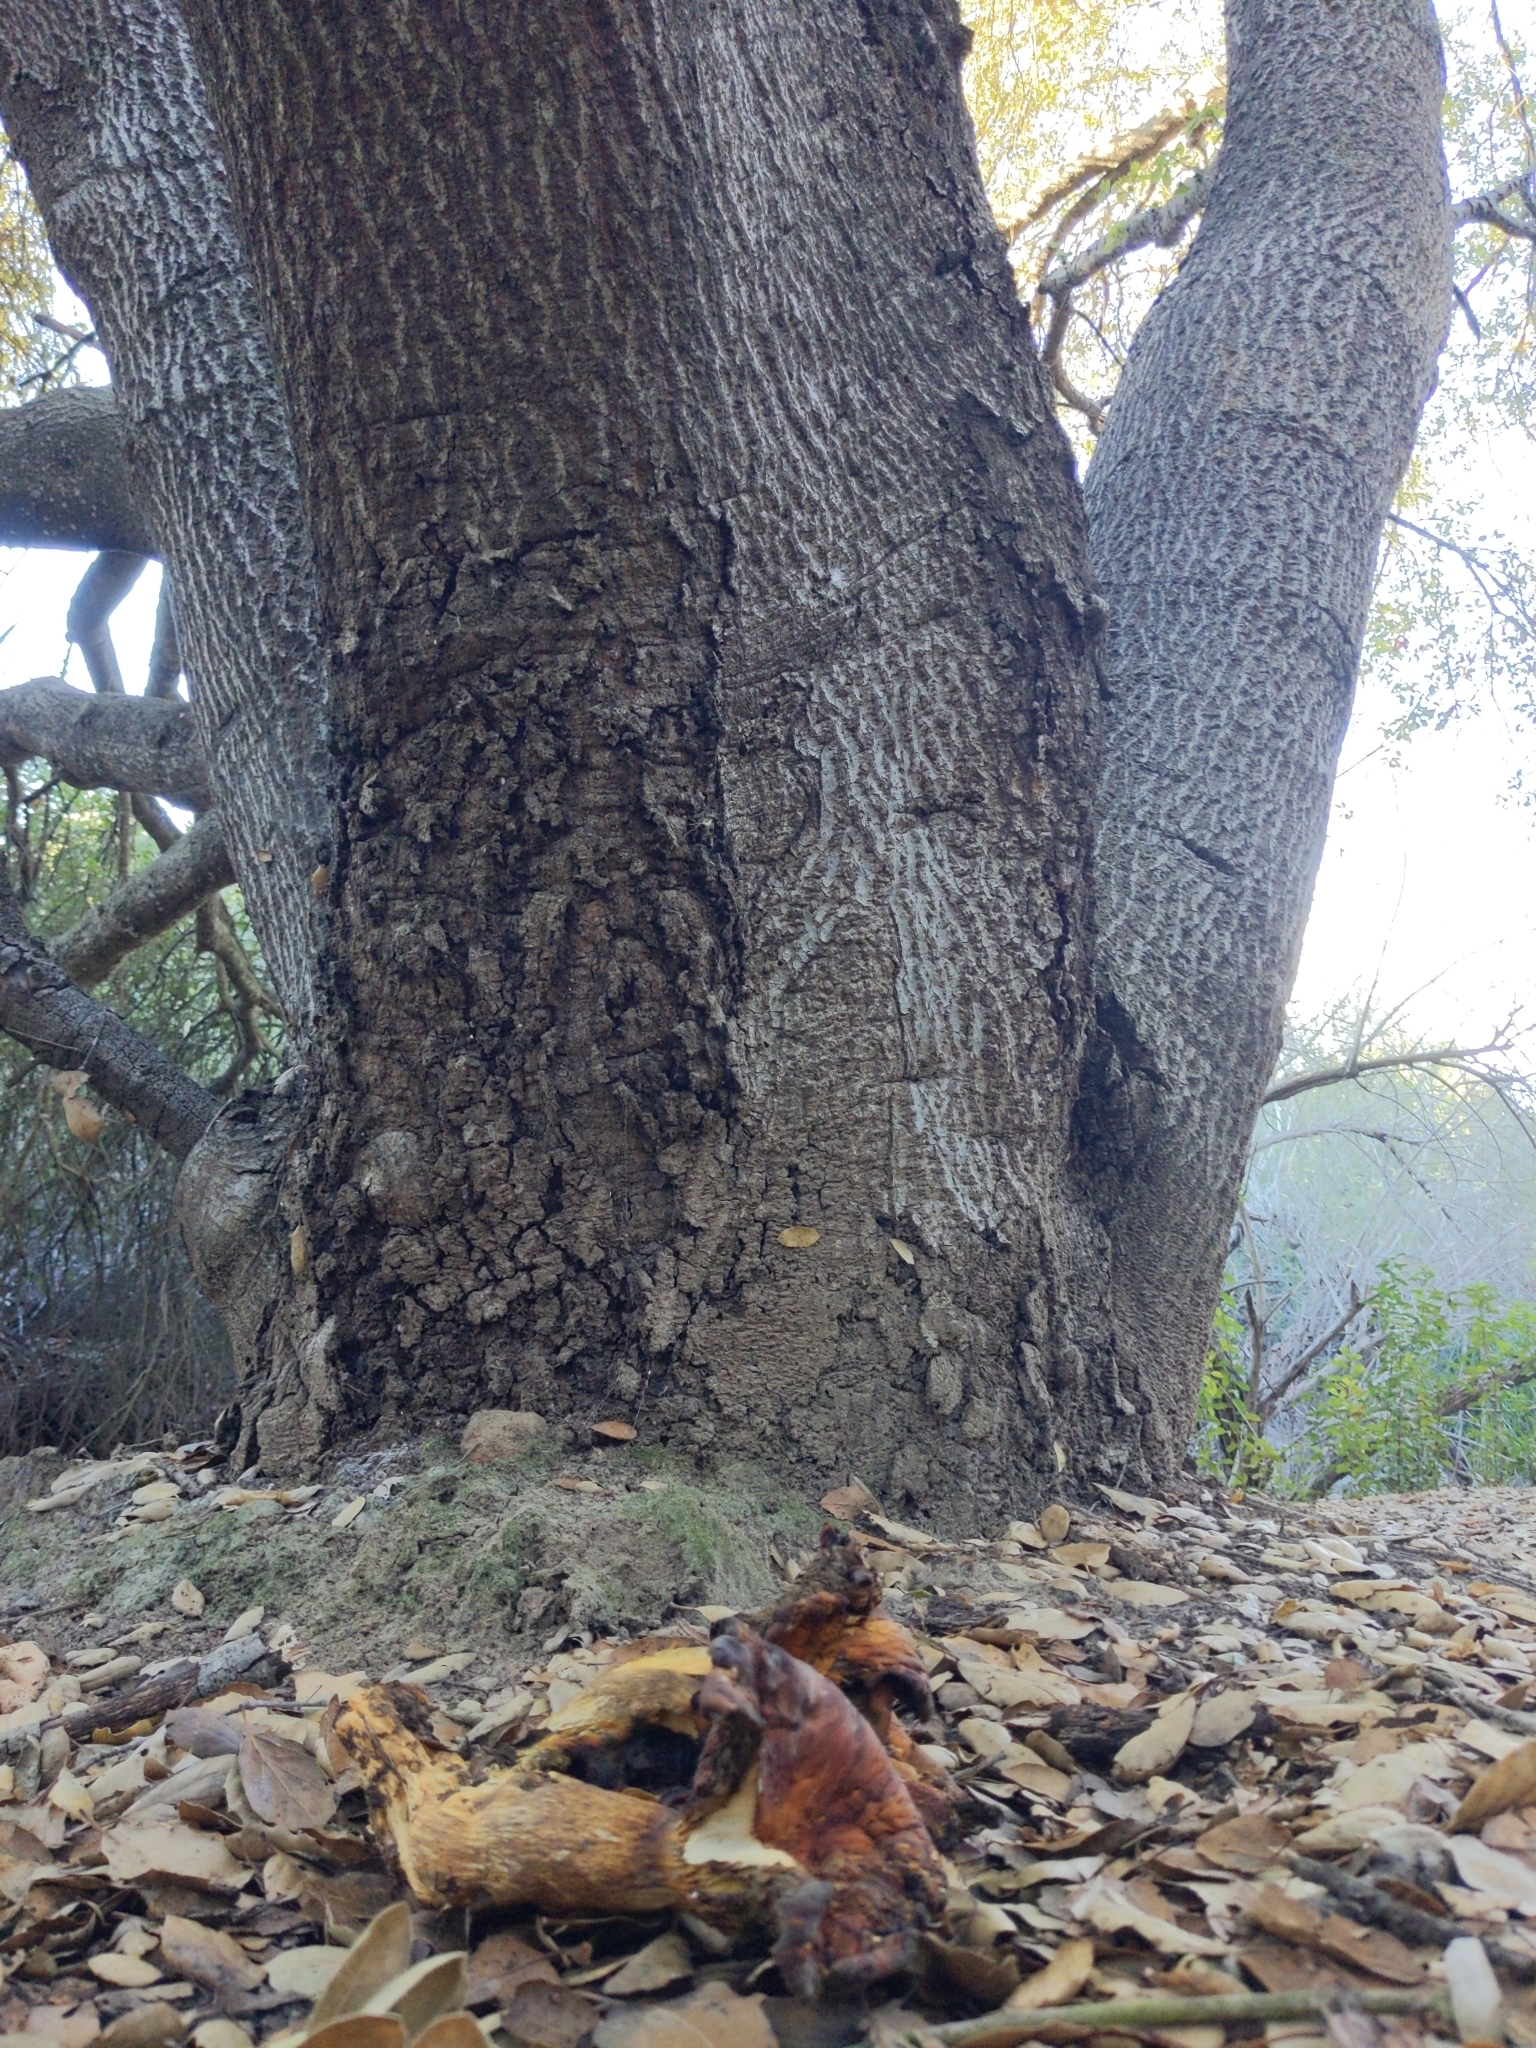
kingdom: Fungi
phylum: Basidiomycota
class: Agaricomycetes
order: Agaricales
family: Omphalotaceae
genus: Omphalotus
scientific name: Omphalotus olivascens
